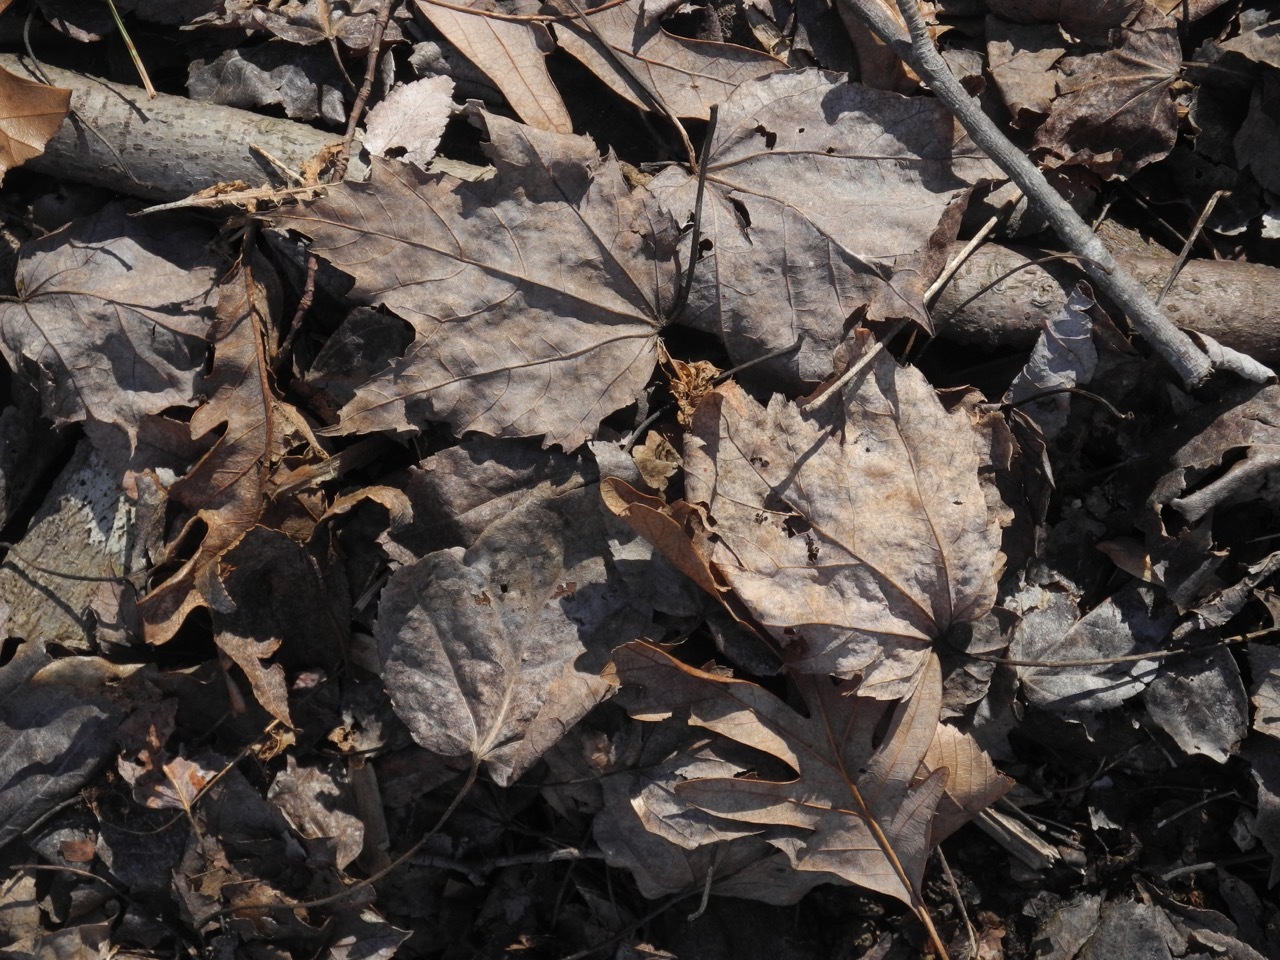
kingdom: Plantae
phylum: Tracheophyta
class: Magnoliopsida
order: Sapindales
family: Sapindaceae
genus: Acer
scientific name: Acer freemanii
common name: Freeman maple
